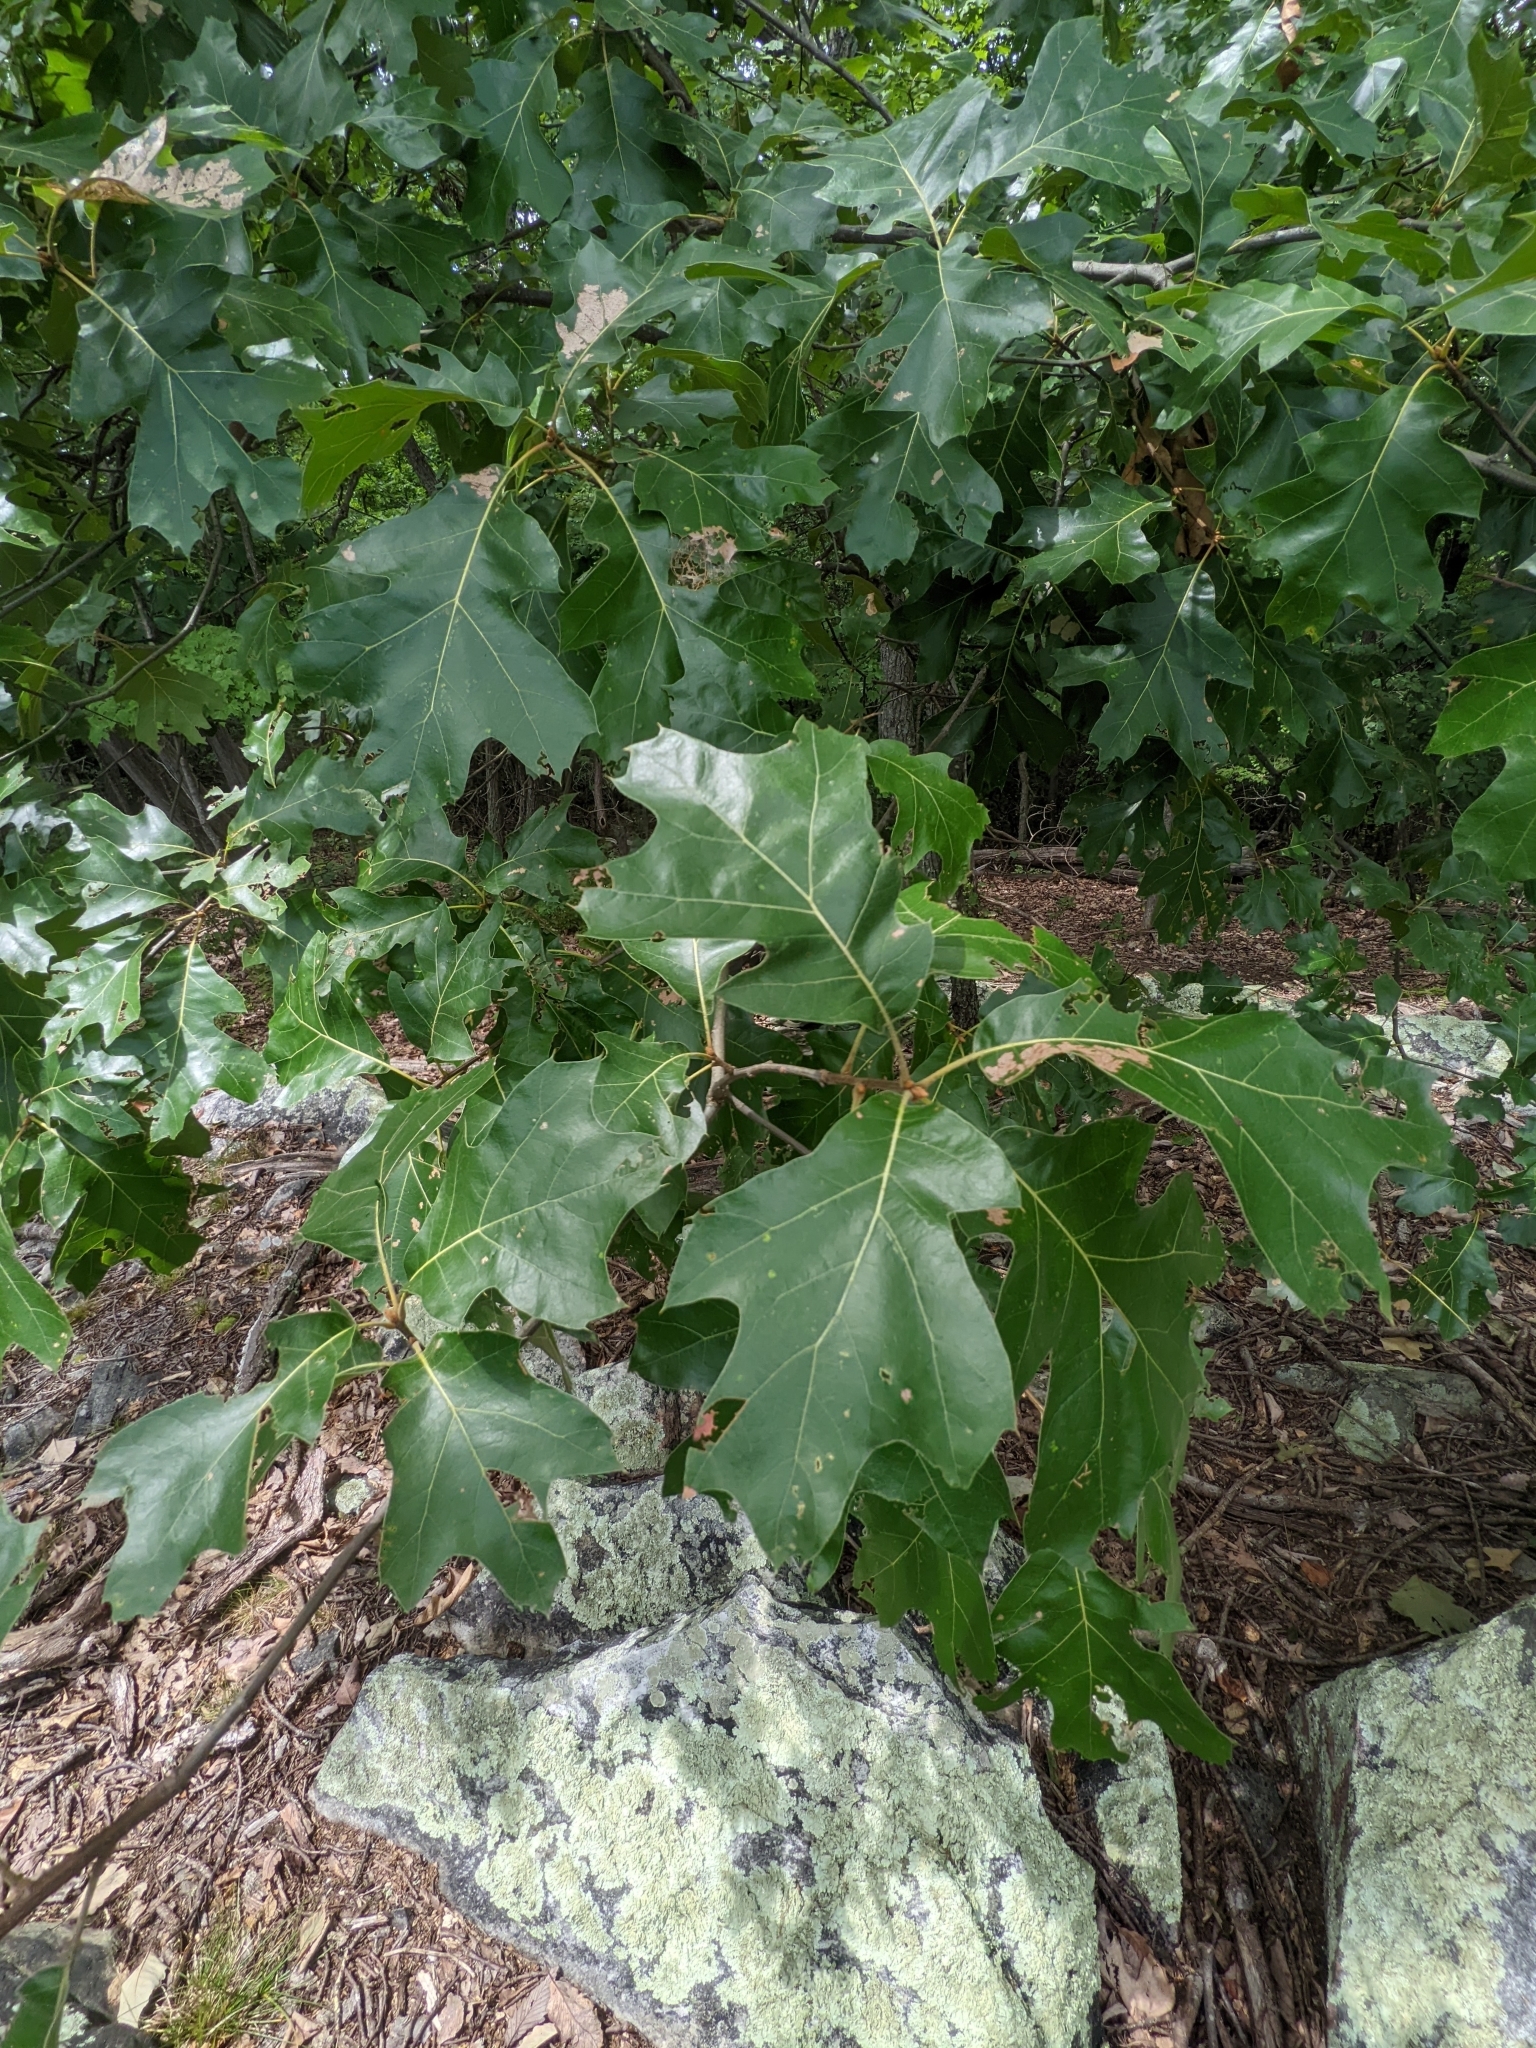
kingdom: Plantae
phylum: Tracheophyta
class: Magnoliopsida
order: Fagales
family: Fagaceae
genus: Quercus
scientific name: Quercus velutina
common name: Black oak
